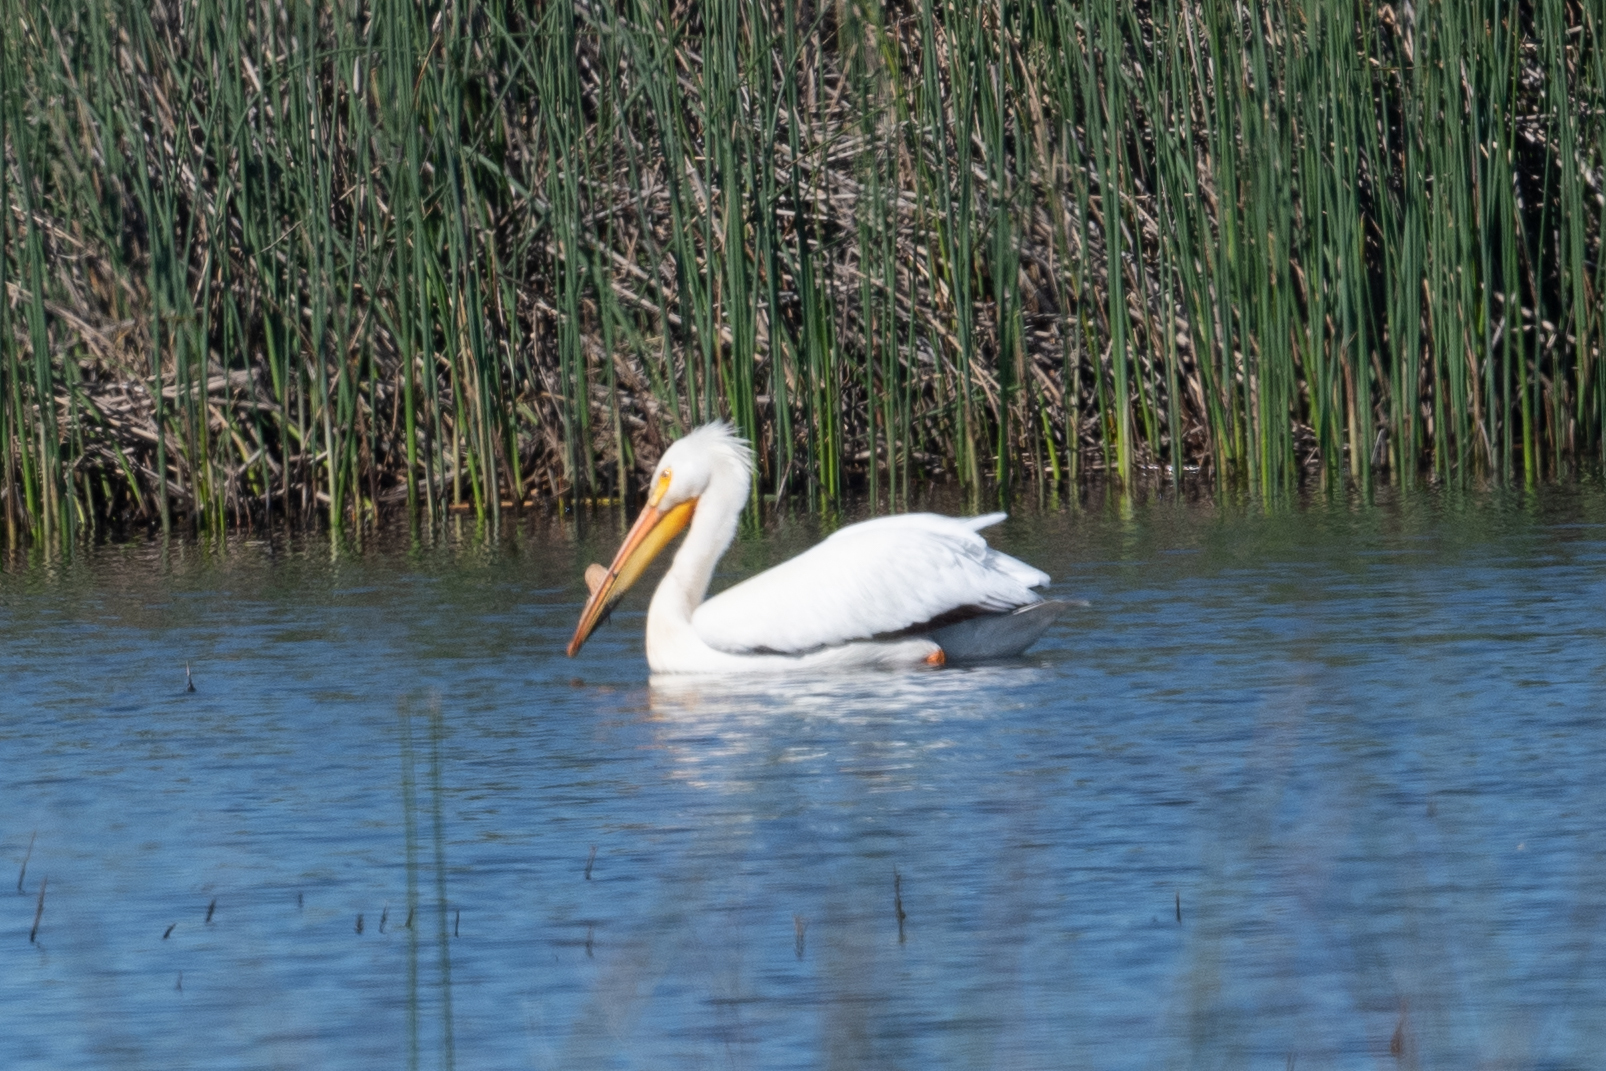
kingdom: Animalia
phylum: Chordata
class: Aves
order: Pelecaniformes
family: Pelecanidae
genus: Pelecanus
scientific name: Pelecanus erythrorhynchos
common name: American white pelican
